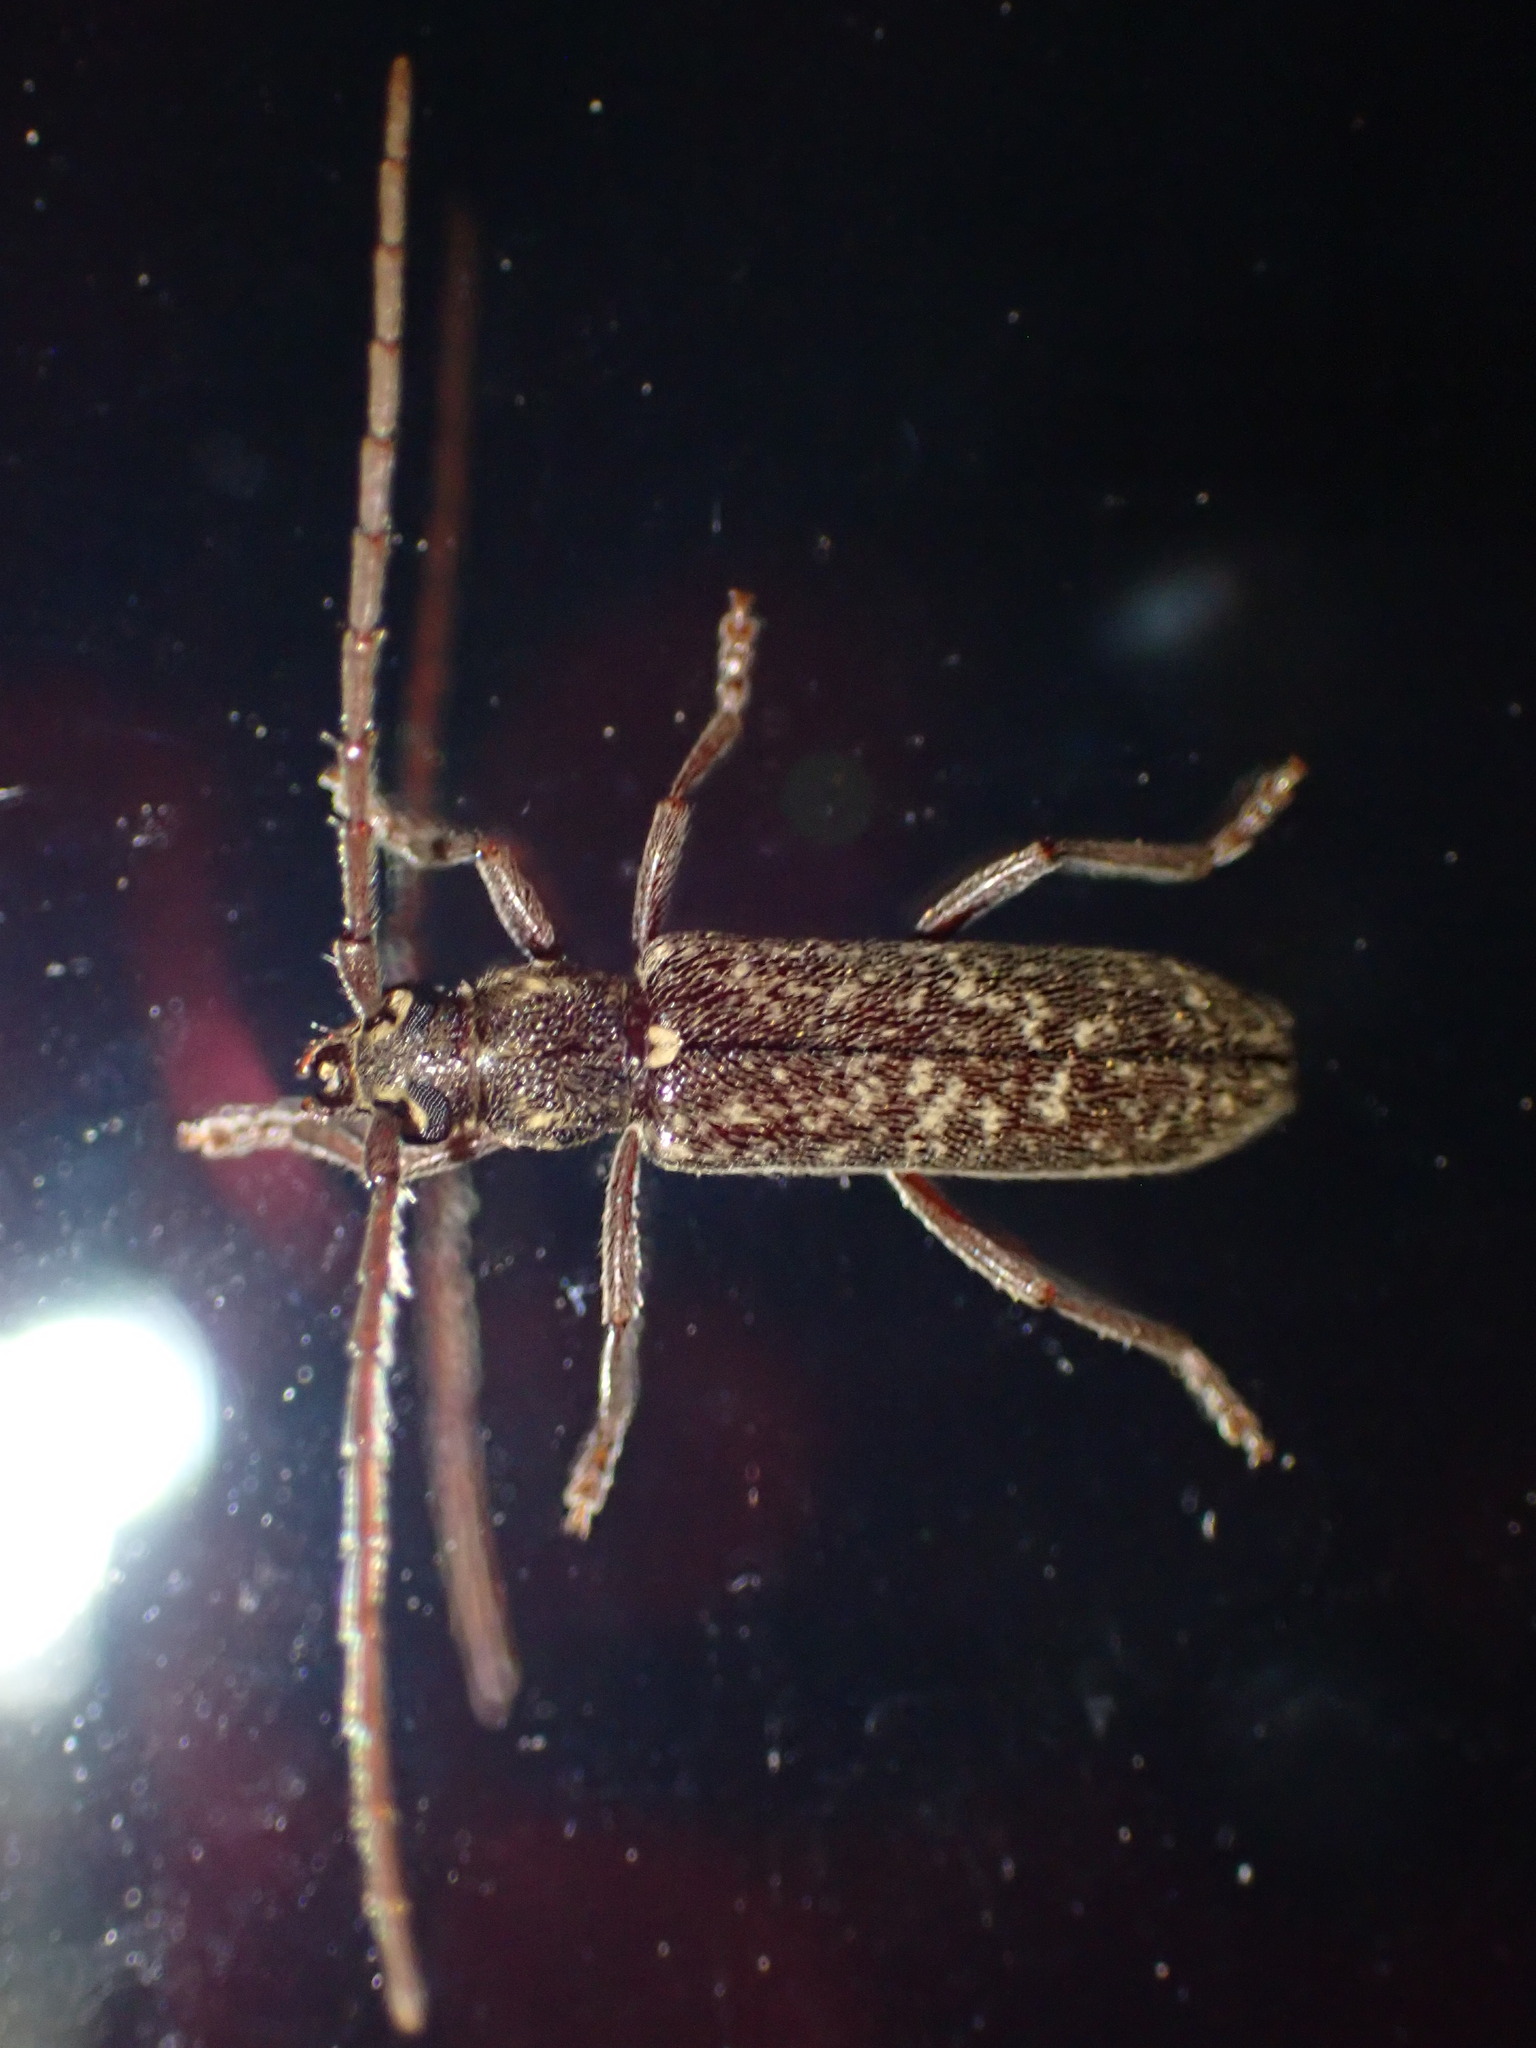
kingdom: Animalia
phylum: Arthropoda
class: Insecta
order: Coleoptera
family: Cerambycidae
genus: Anelaphus
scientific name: Anelaphus villosus
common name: Twig pruner
